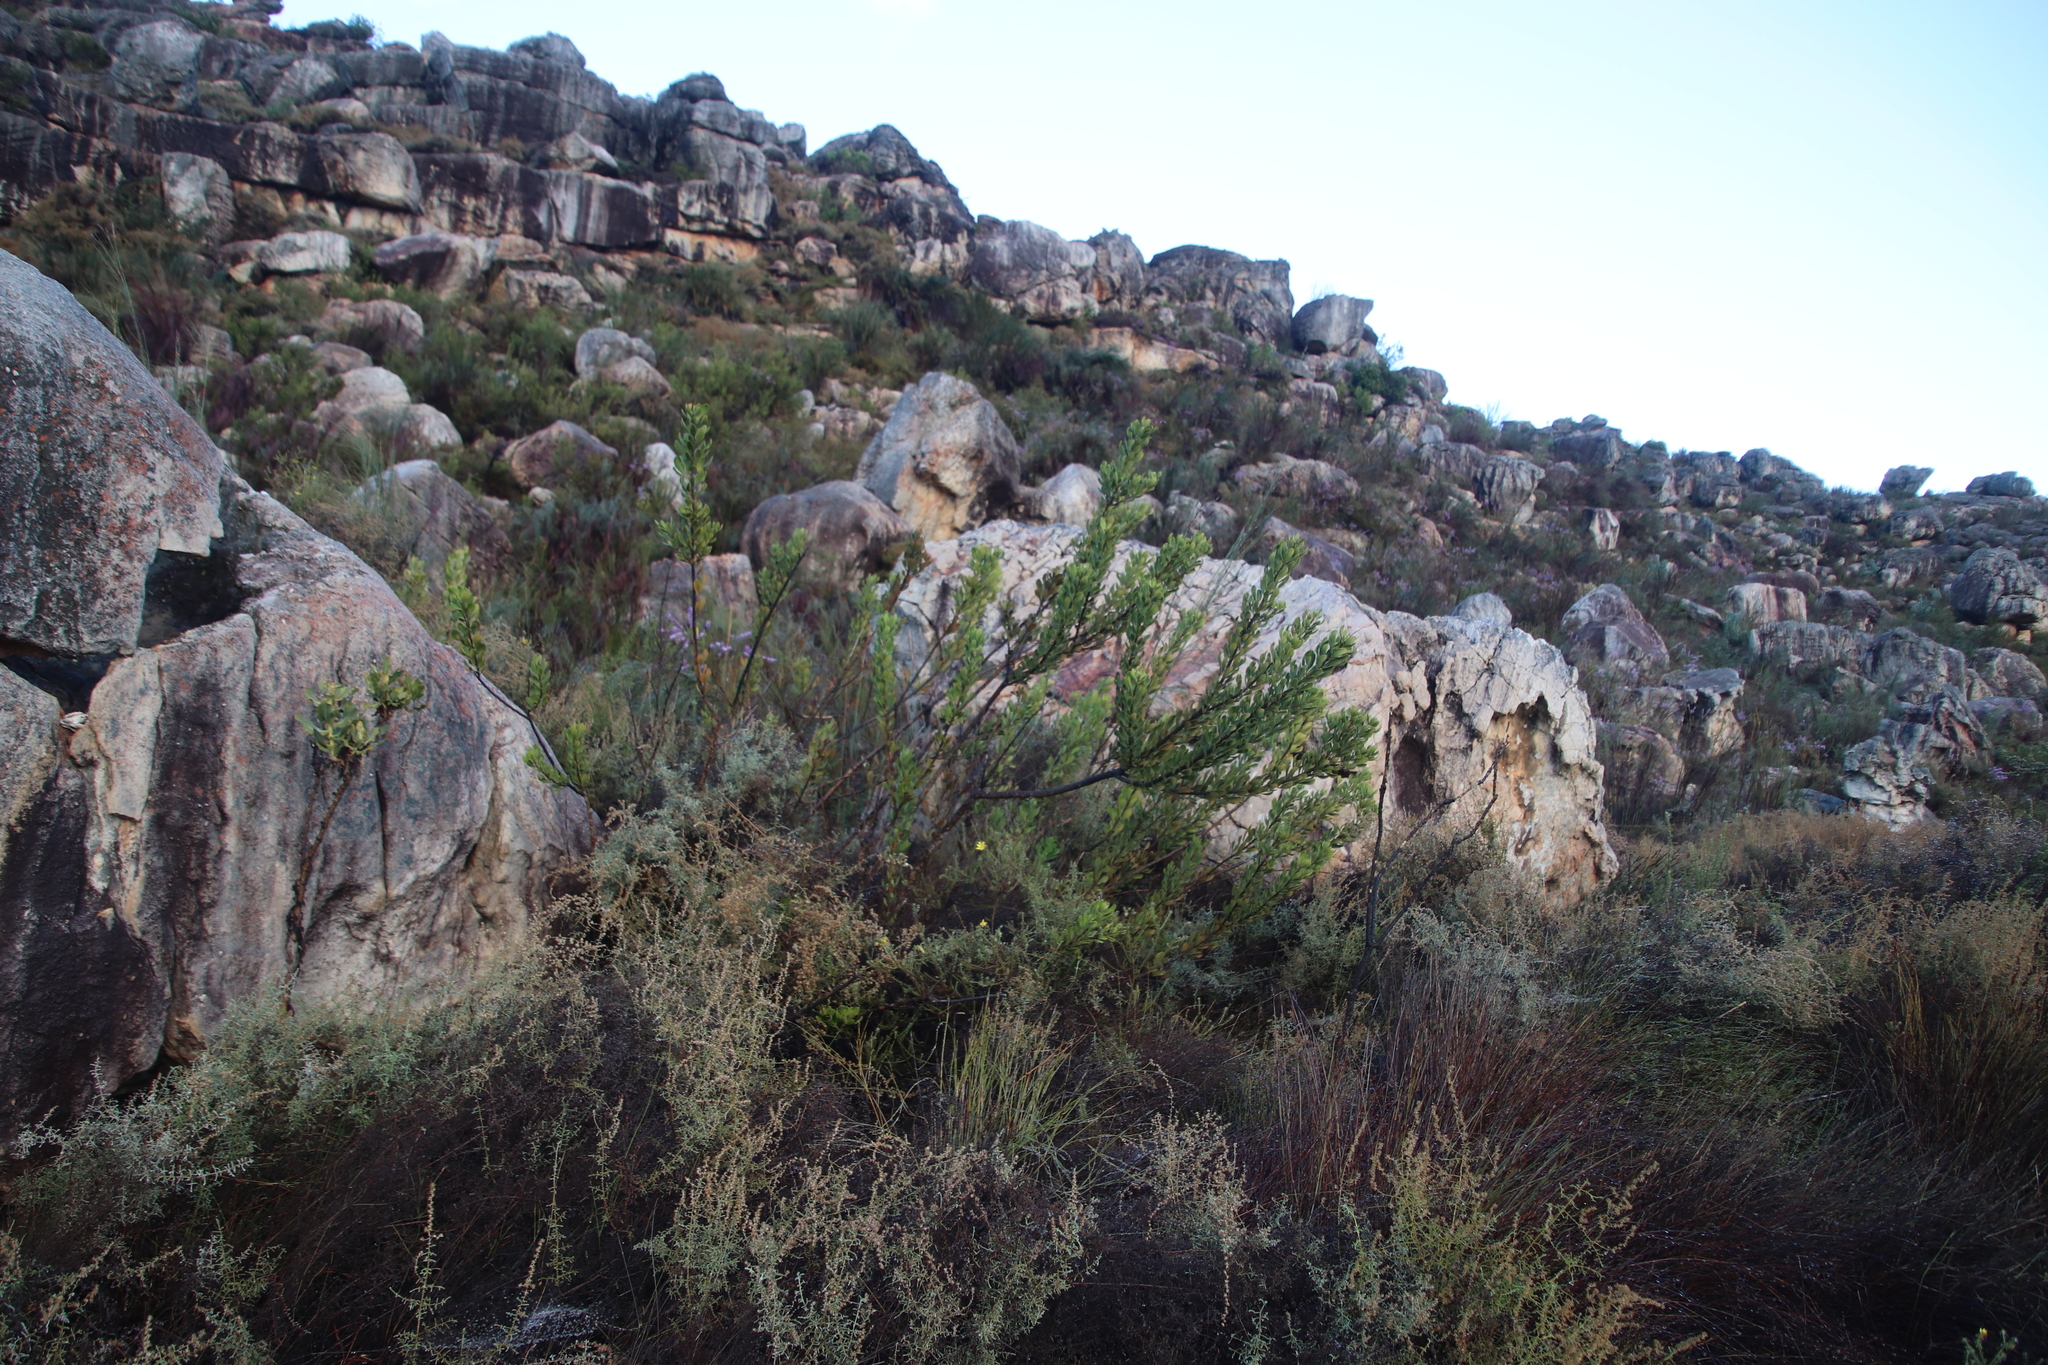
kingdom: Plantae
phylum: Tracheophyta
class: Magnoliopsida
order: Sapindales
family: Anacardiaceae
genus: Searsia
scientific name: Searsia scytophylla
